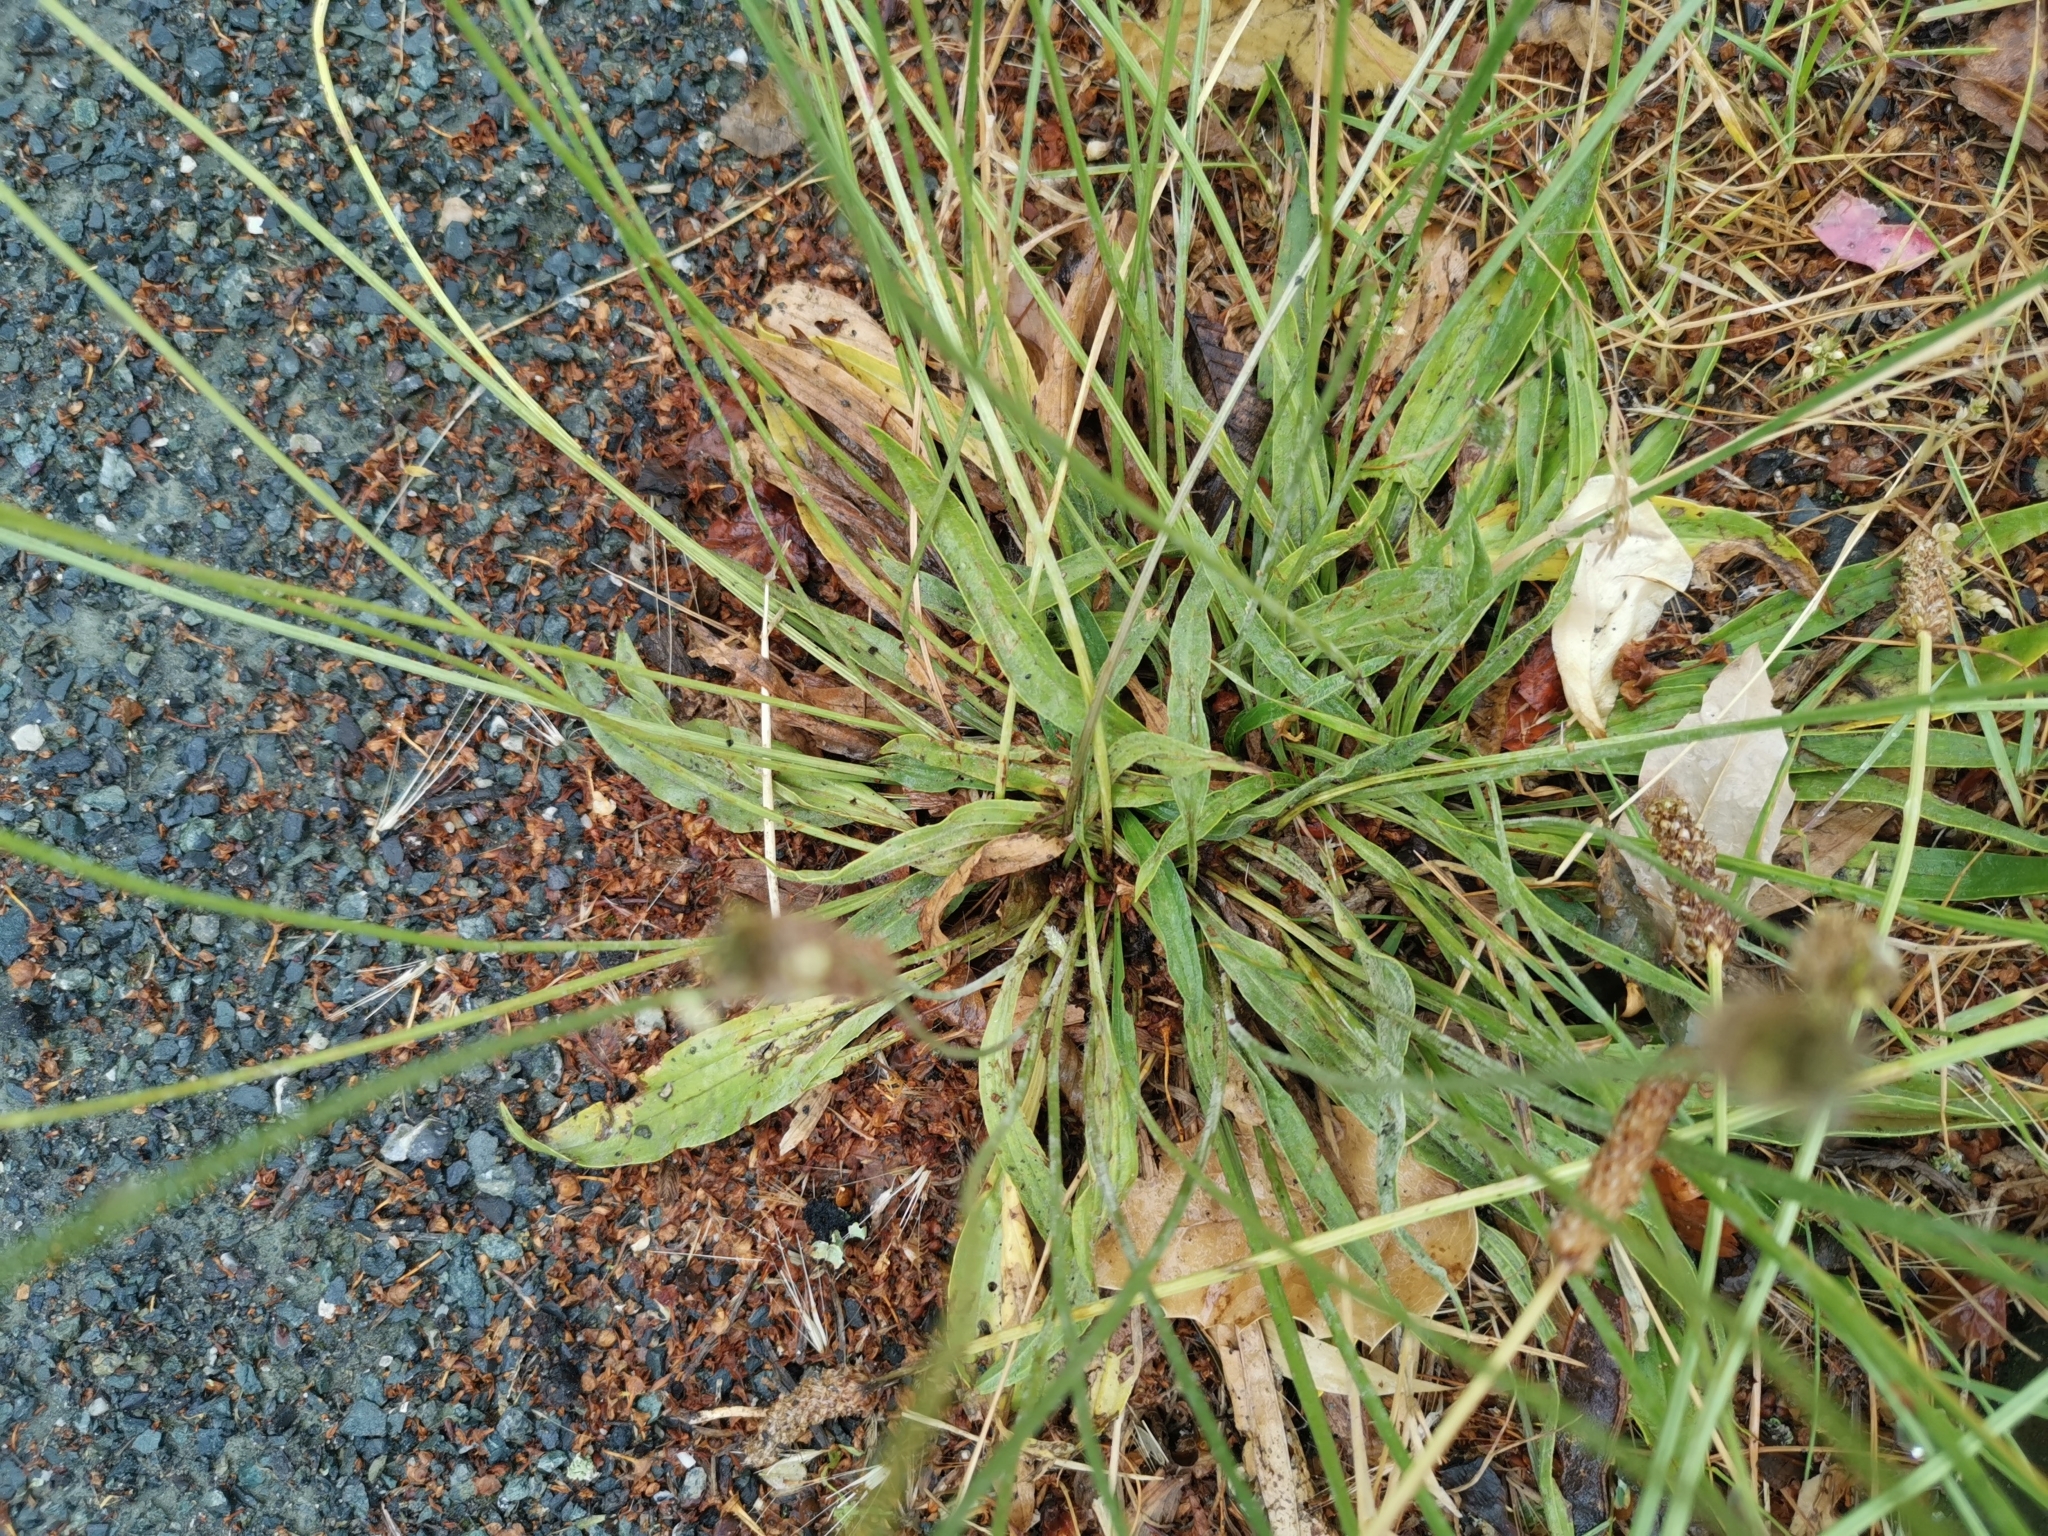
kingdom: Plantae
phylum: Tracheophyta
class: Magnoliopsida
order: Lamiales
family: Plantaginaceae
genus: Plantago
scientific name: Plantago lanceolata
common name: Ribwort plantain
